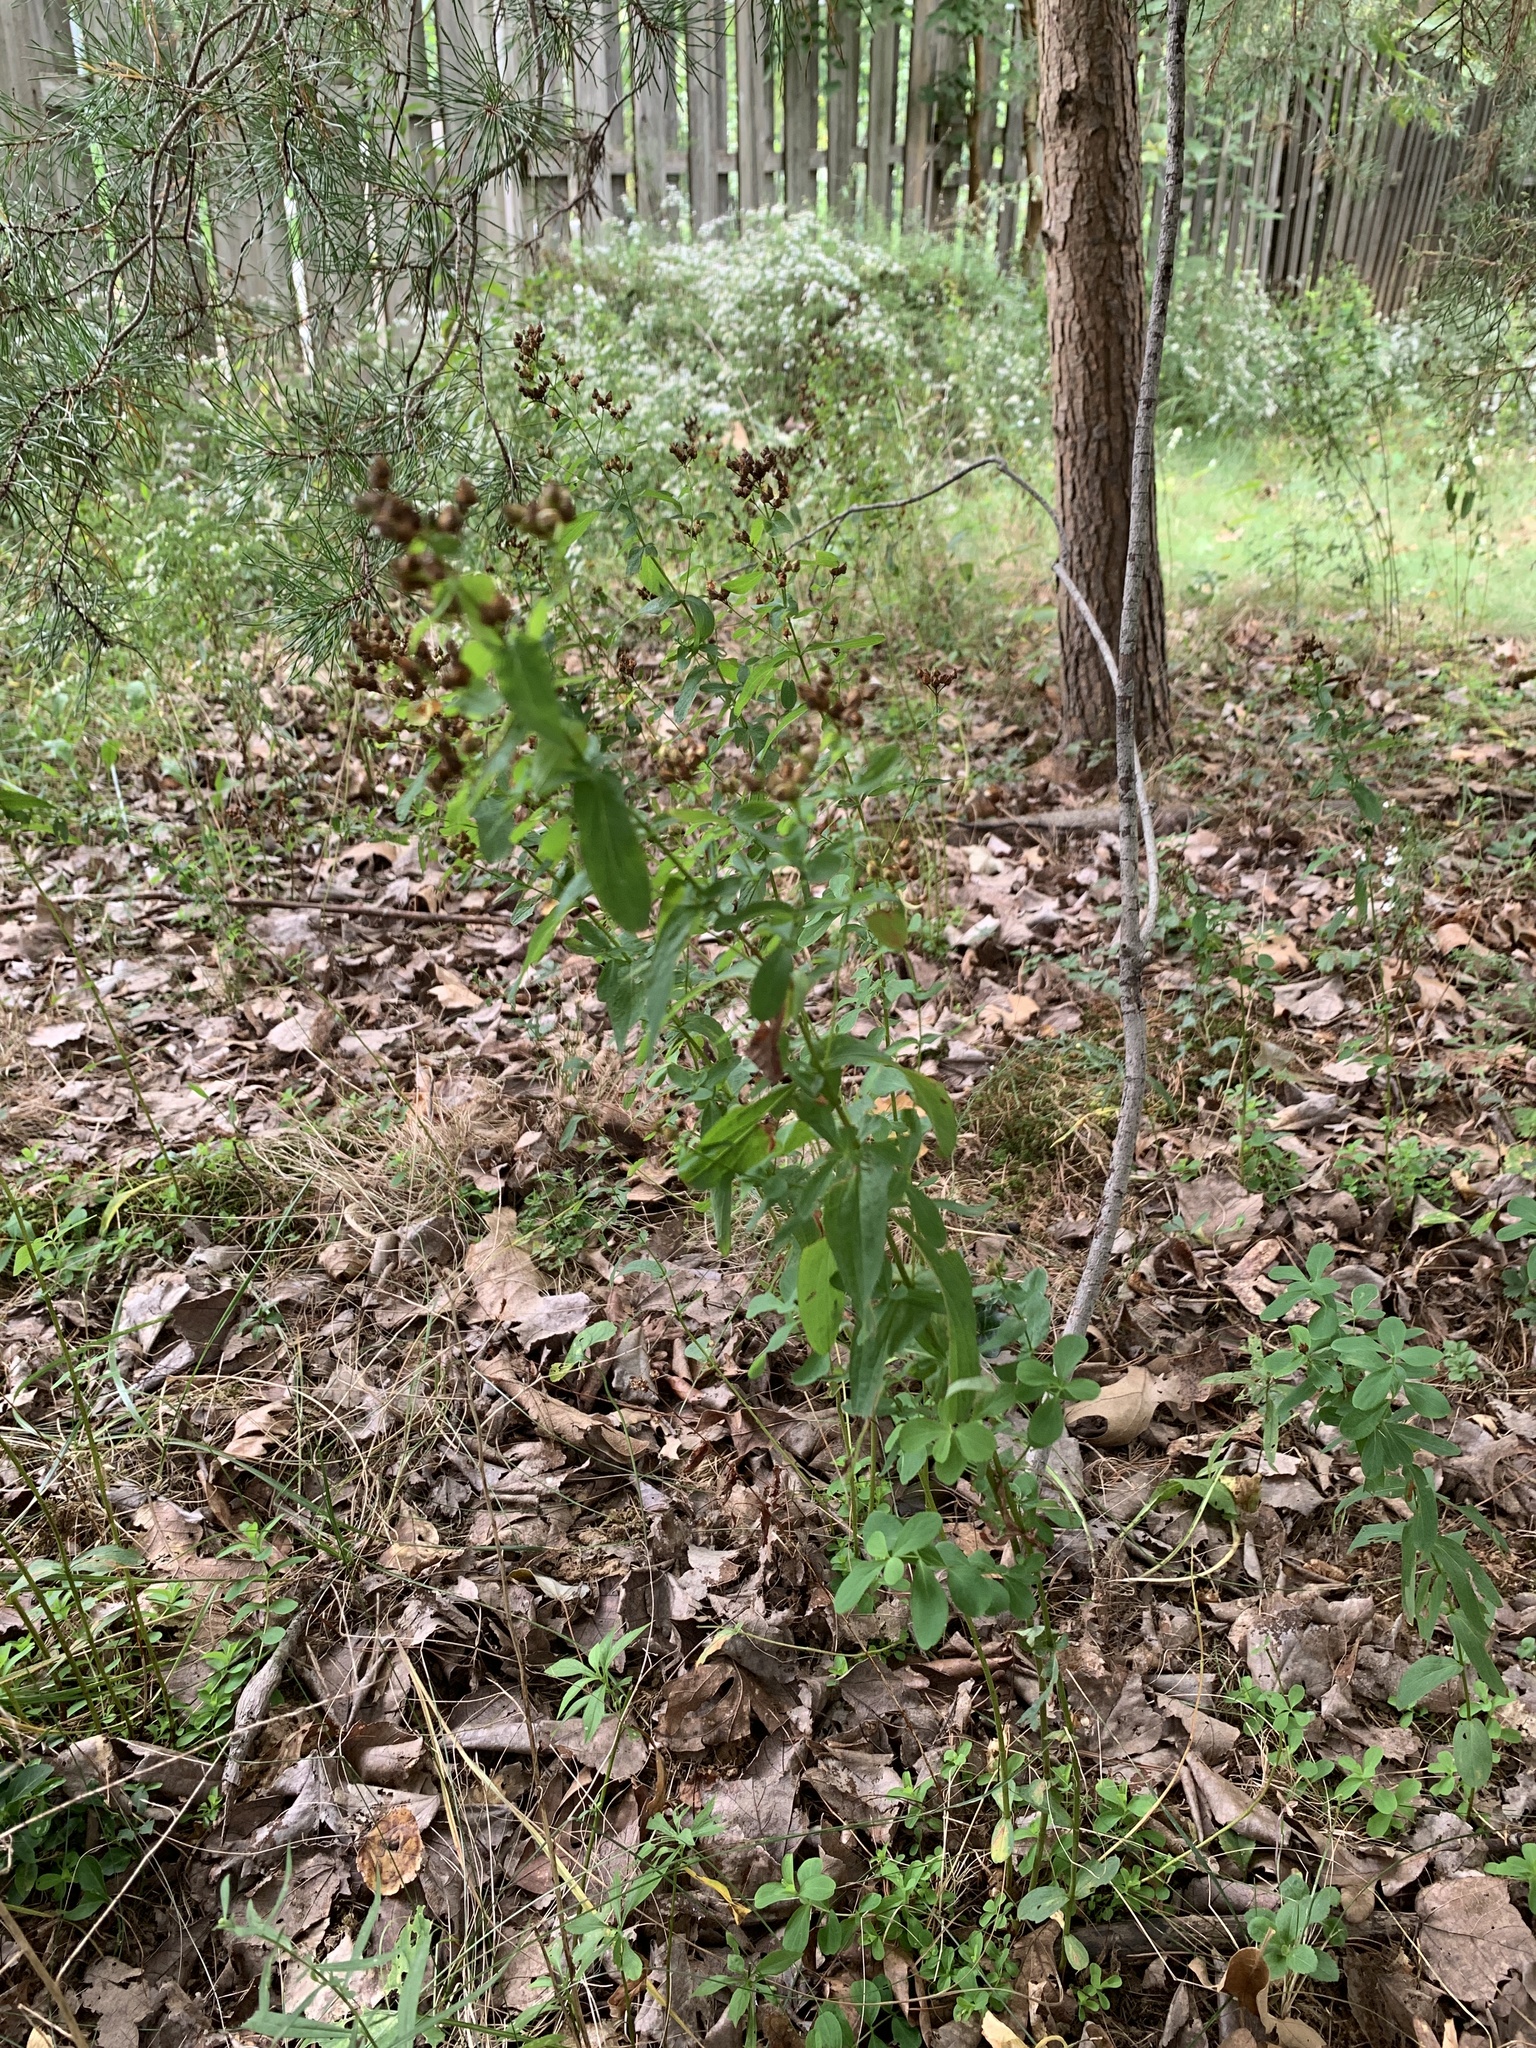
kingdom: Plantae
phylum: Tracheophyta
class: Magnoliopsida
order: Malpighiales
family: Hypericaceae
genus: Hypericum
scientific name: Hypericum perforatum
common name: Common st. johnswort
